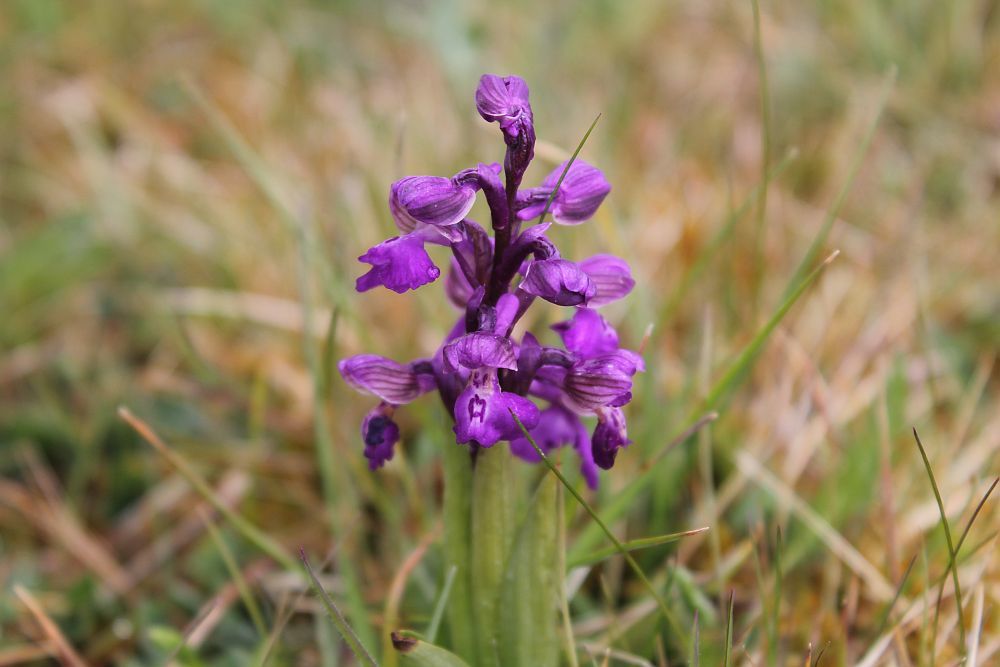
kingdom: Plantae
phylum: Tracheophyta
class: Liliopsida
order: Asparagales
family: Orchidaceae
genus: Anacamptis
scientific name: Anacamptis morio
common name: Green-winged orchid
